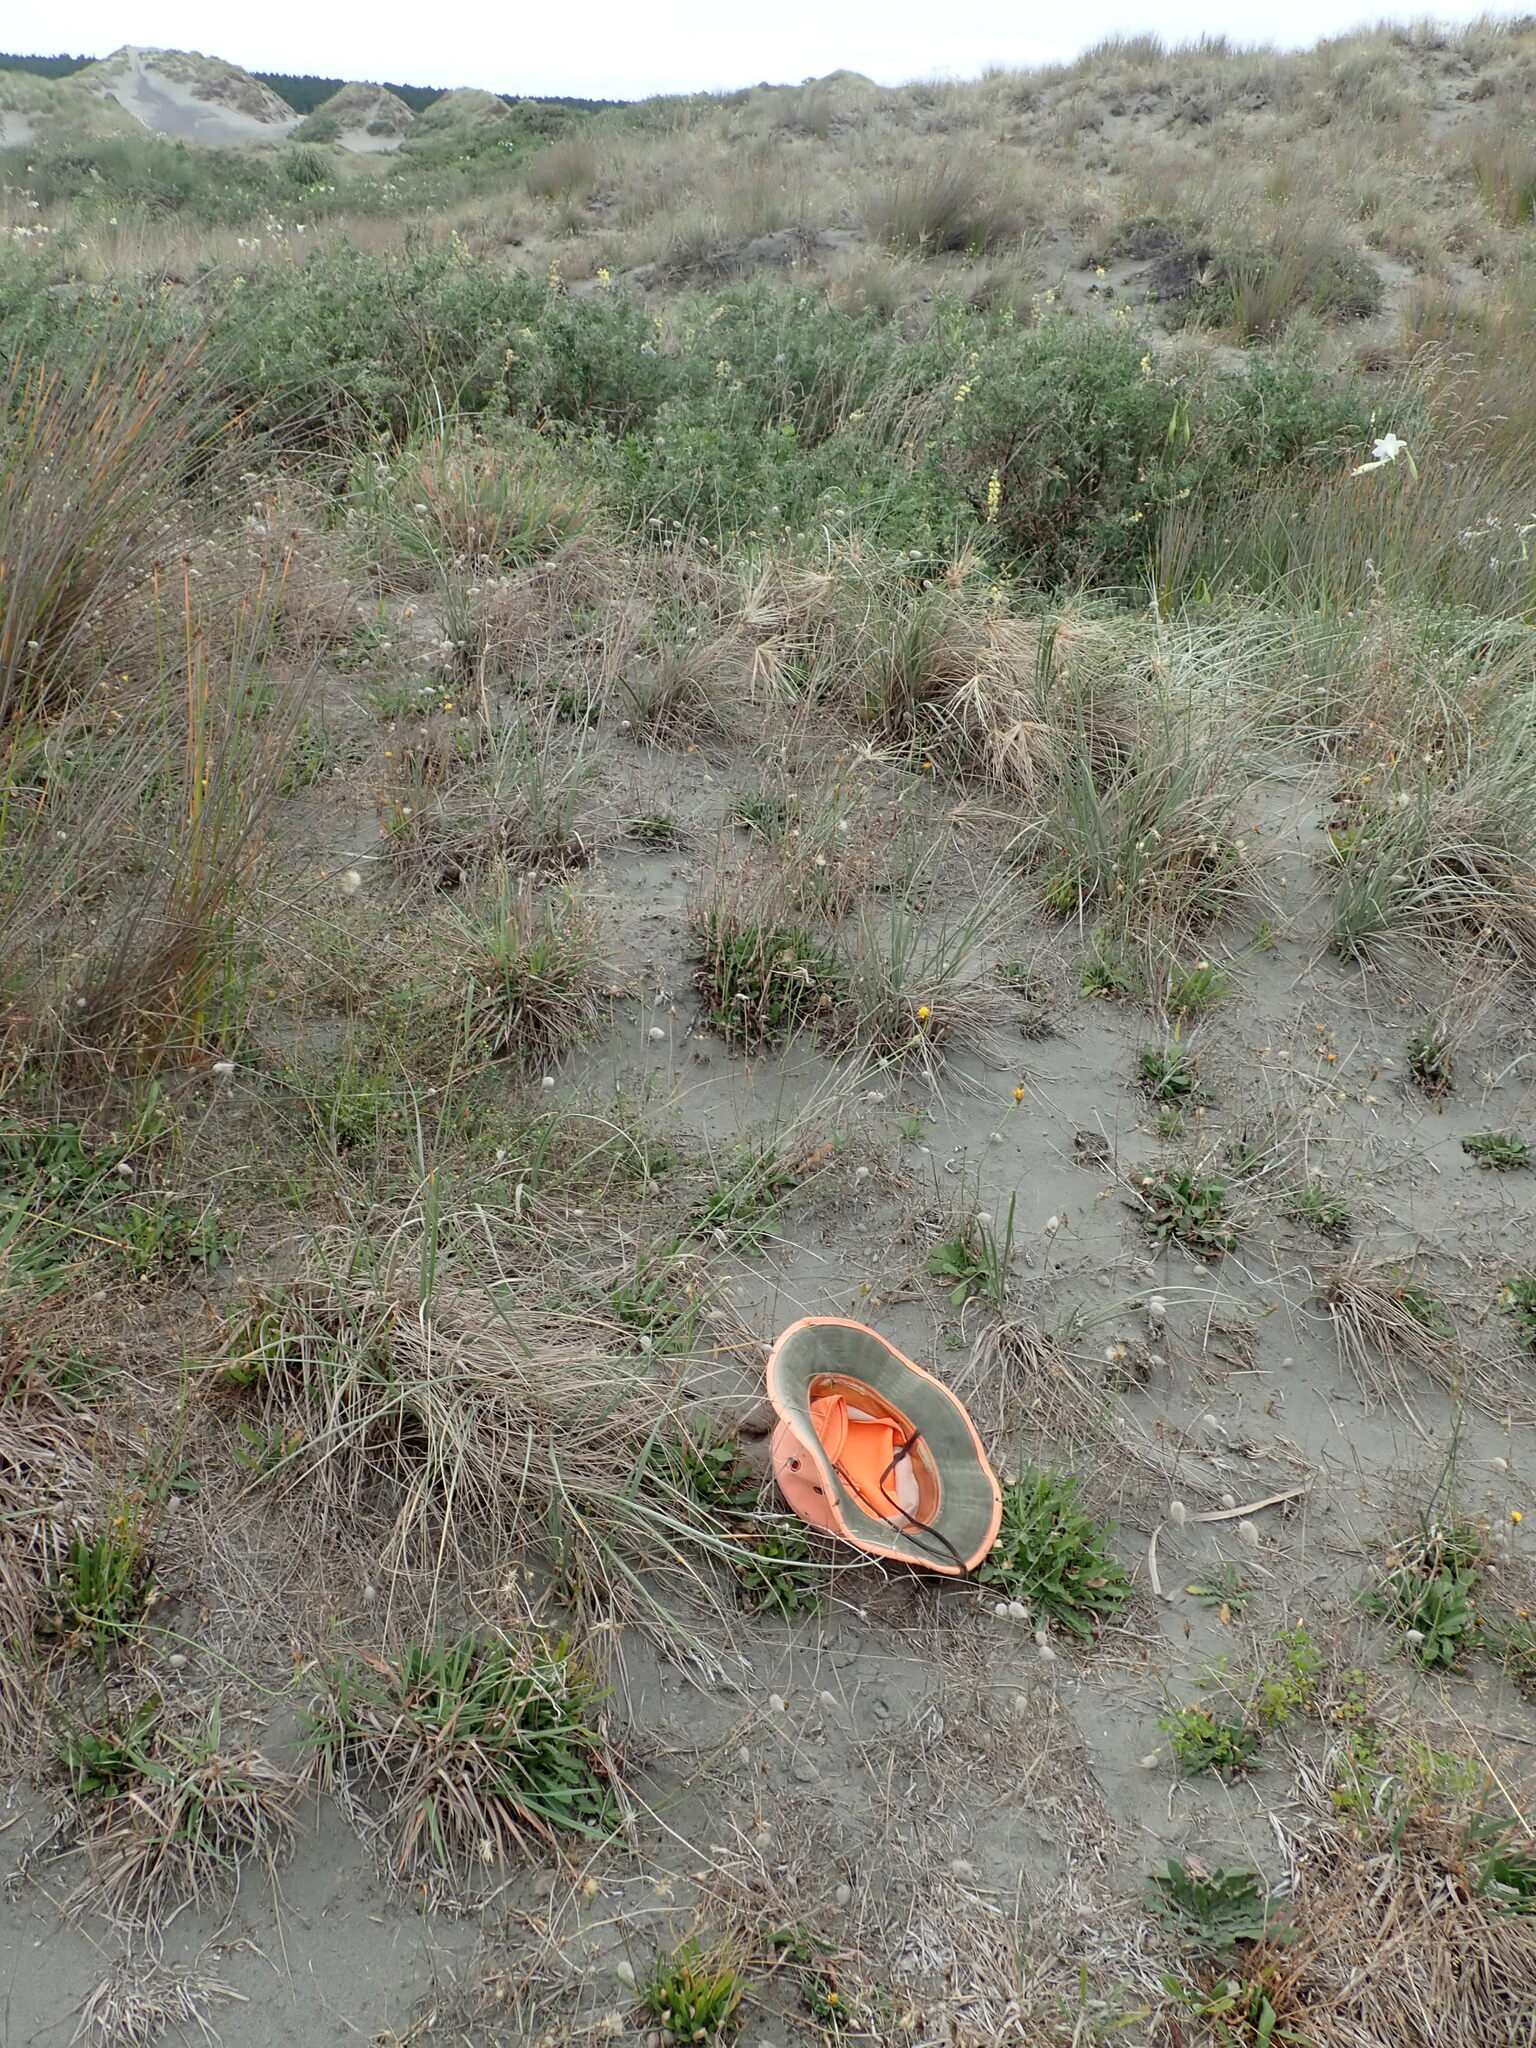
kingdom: Plantae
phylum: Tracheophyta
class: Magnoliopsida
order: Fabales
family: Fabaceae
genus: Medicago
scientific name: Medicago lupulina
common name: Black medick
